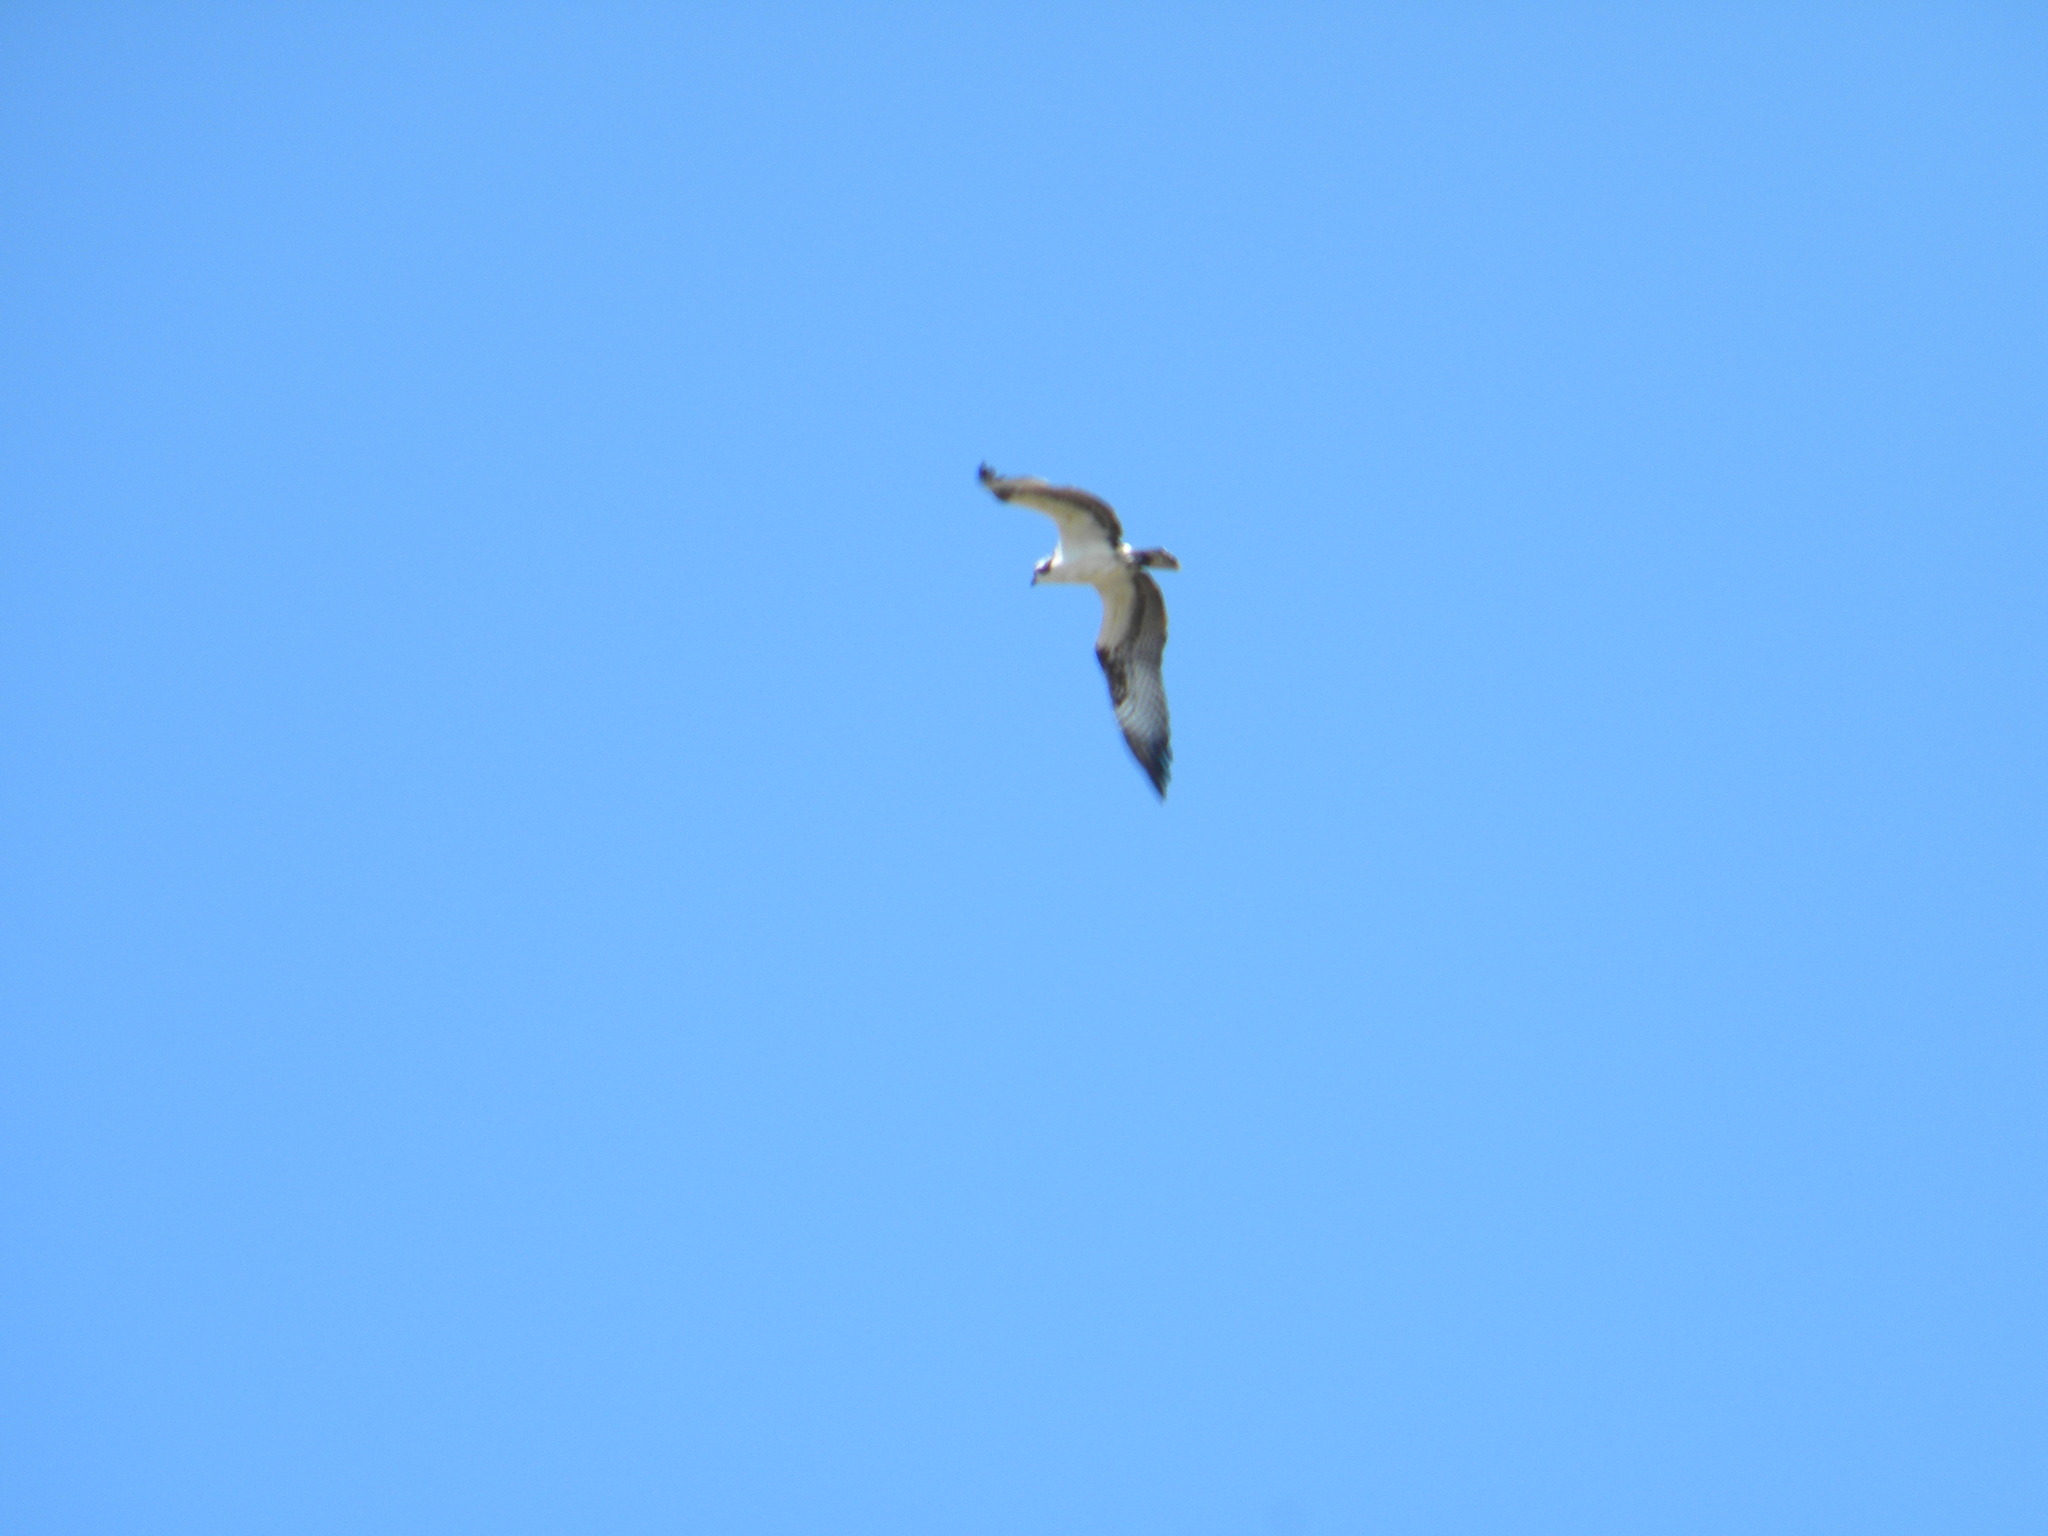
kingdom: Animalia
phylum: Chordata
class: Aves
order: Accipitriformes
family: Pandionidae
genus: Pandion
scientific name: Pandion haliaetus
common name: Osprey
